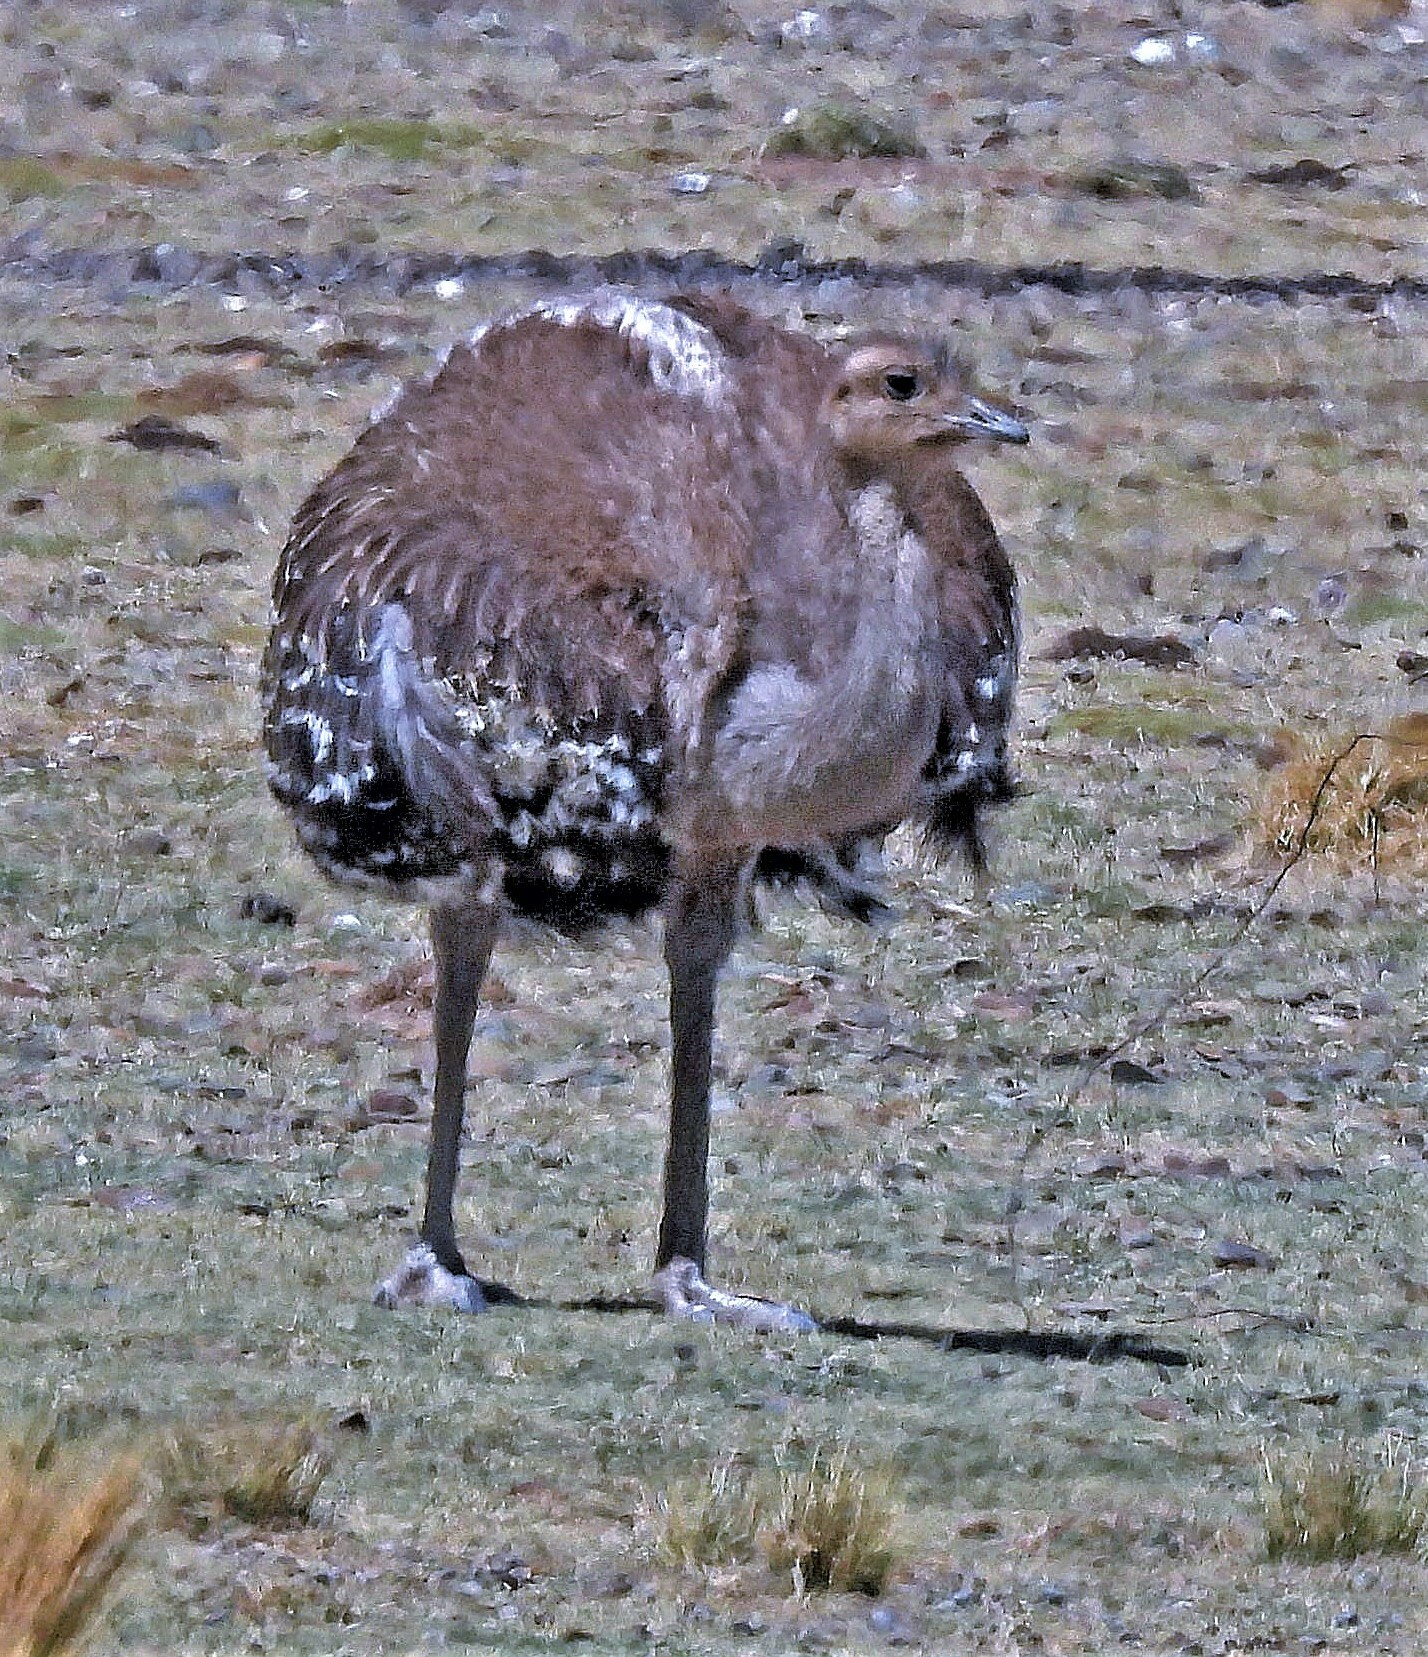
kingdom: Animalia
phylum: Chordata
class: Aves
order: Rheiformes
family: Rheidae
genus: Rhea
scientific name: Rhea pennata
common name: Lesser rhea
